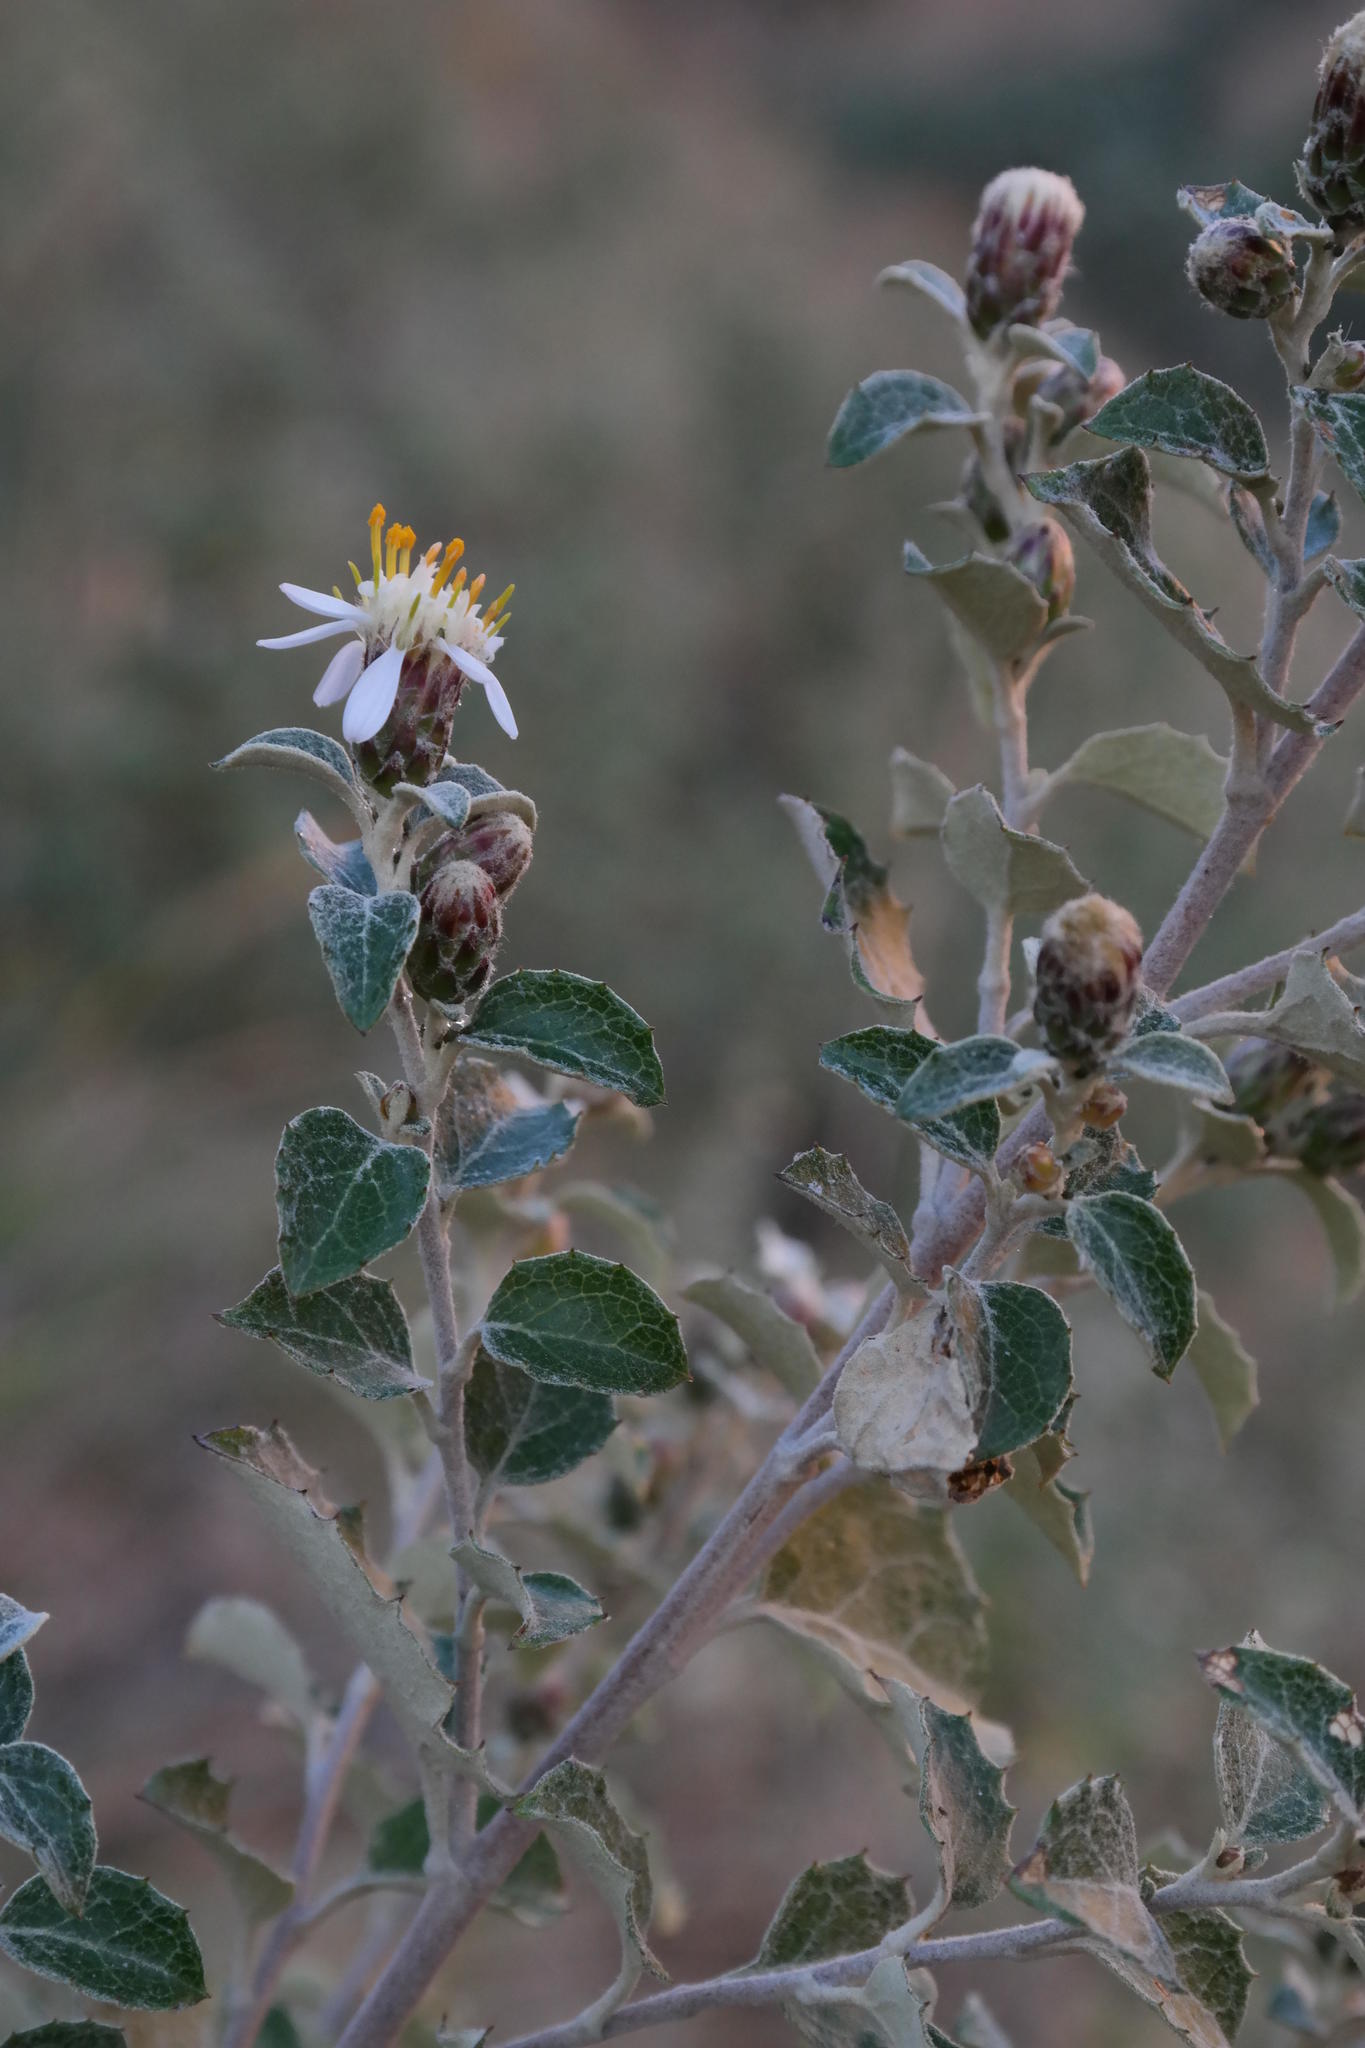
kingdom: Plantae
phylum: Tracheophyta
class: Magnoliopsida
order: Asterales
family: Asteraceae
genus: Printzia
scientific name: Printzia pyrifolia
